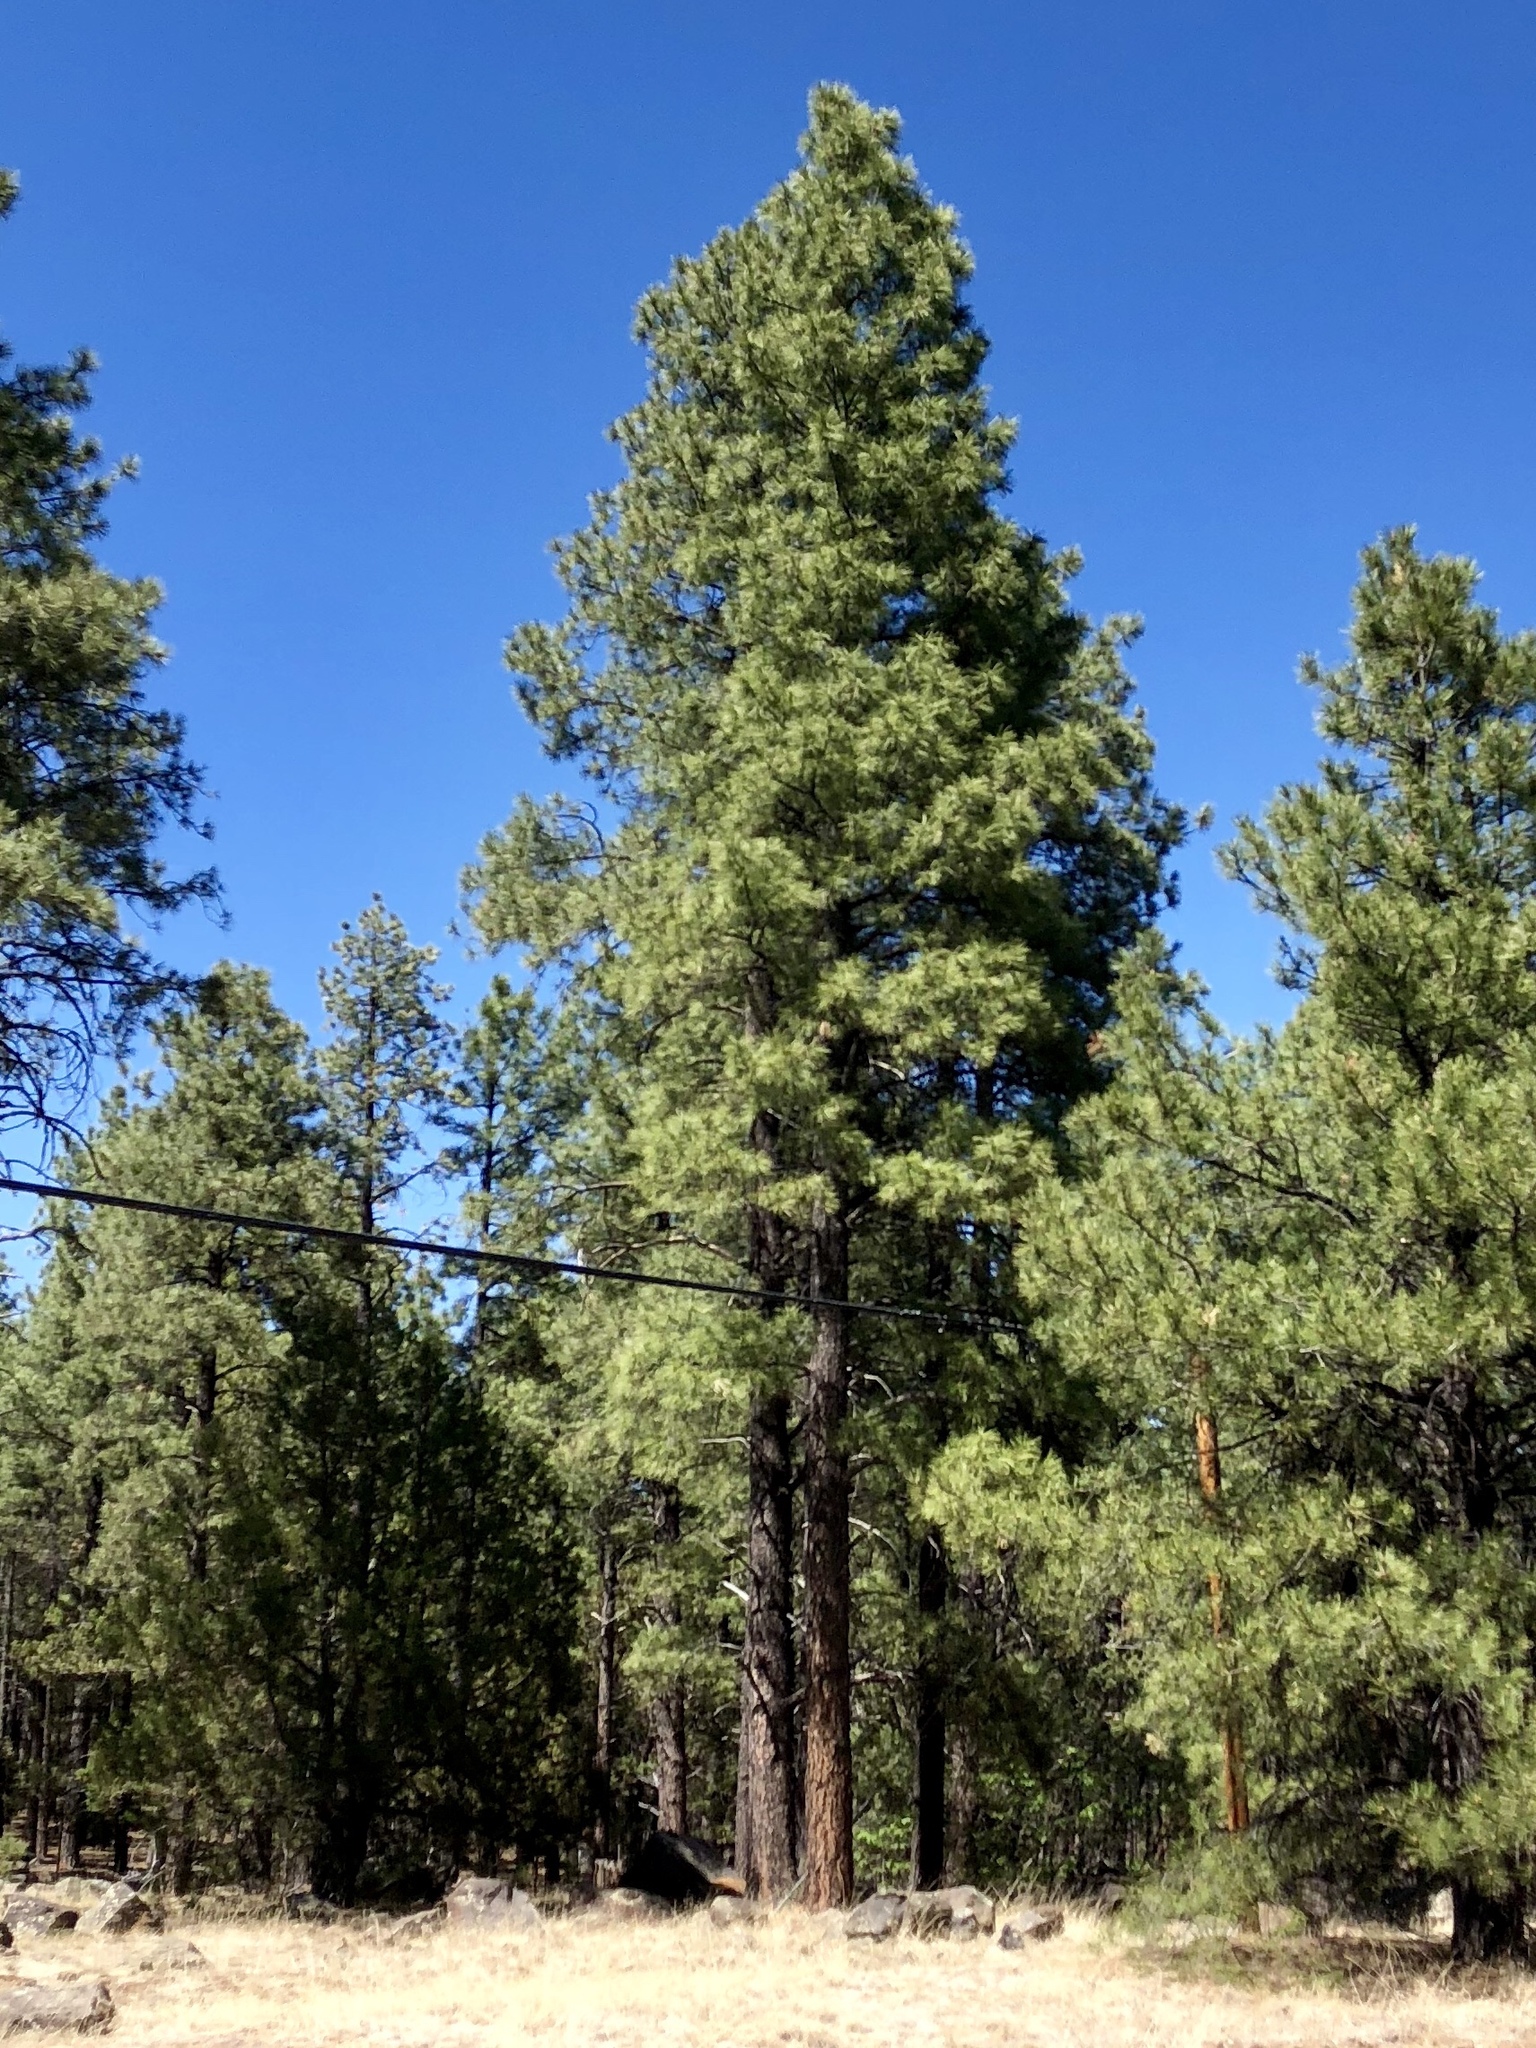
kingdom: Plantae
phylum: Tracheophyta
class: Pinopsida
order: Pinales
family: Pinaceae
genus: Pinus
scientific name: Pinus ponderosa
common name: Western yellow-pine
